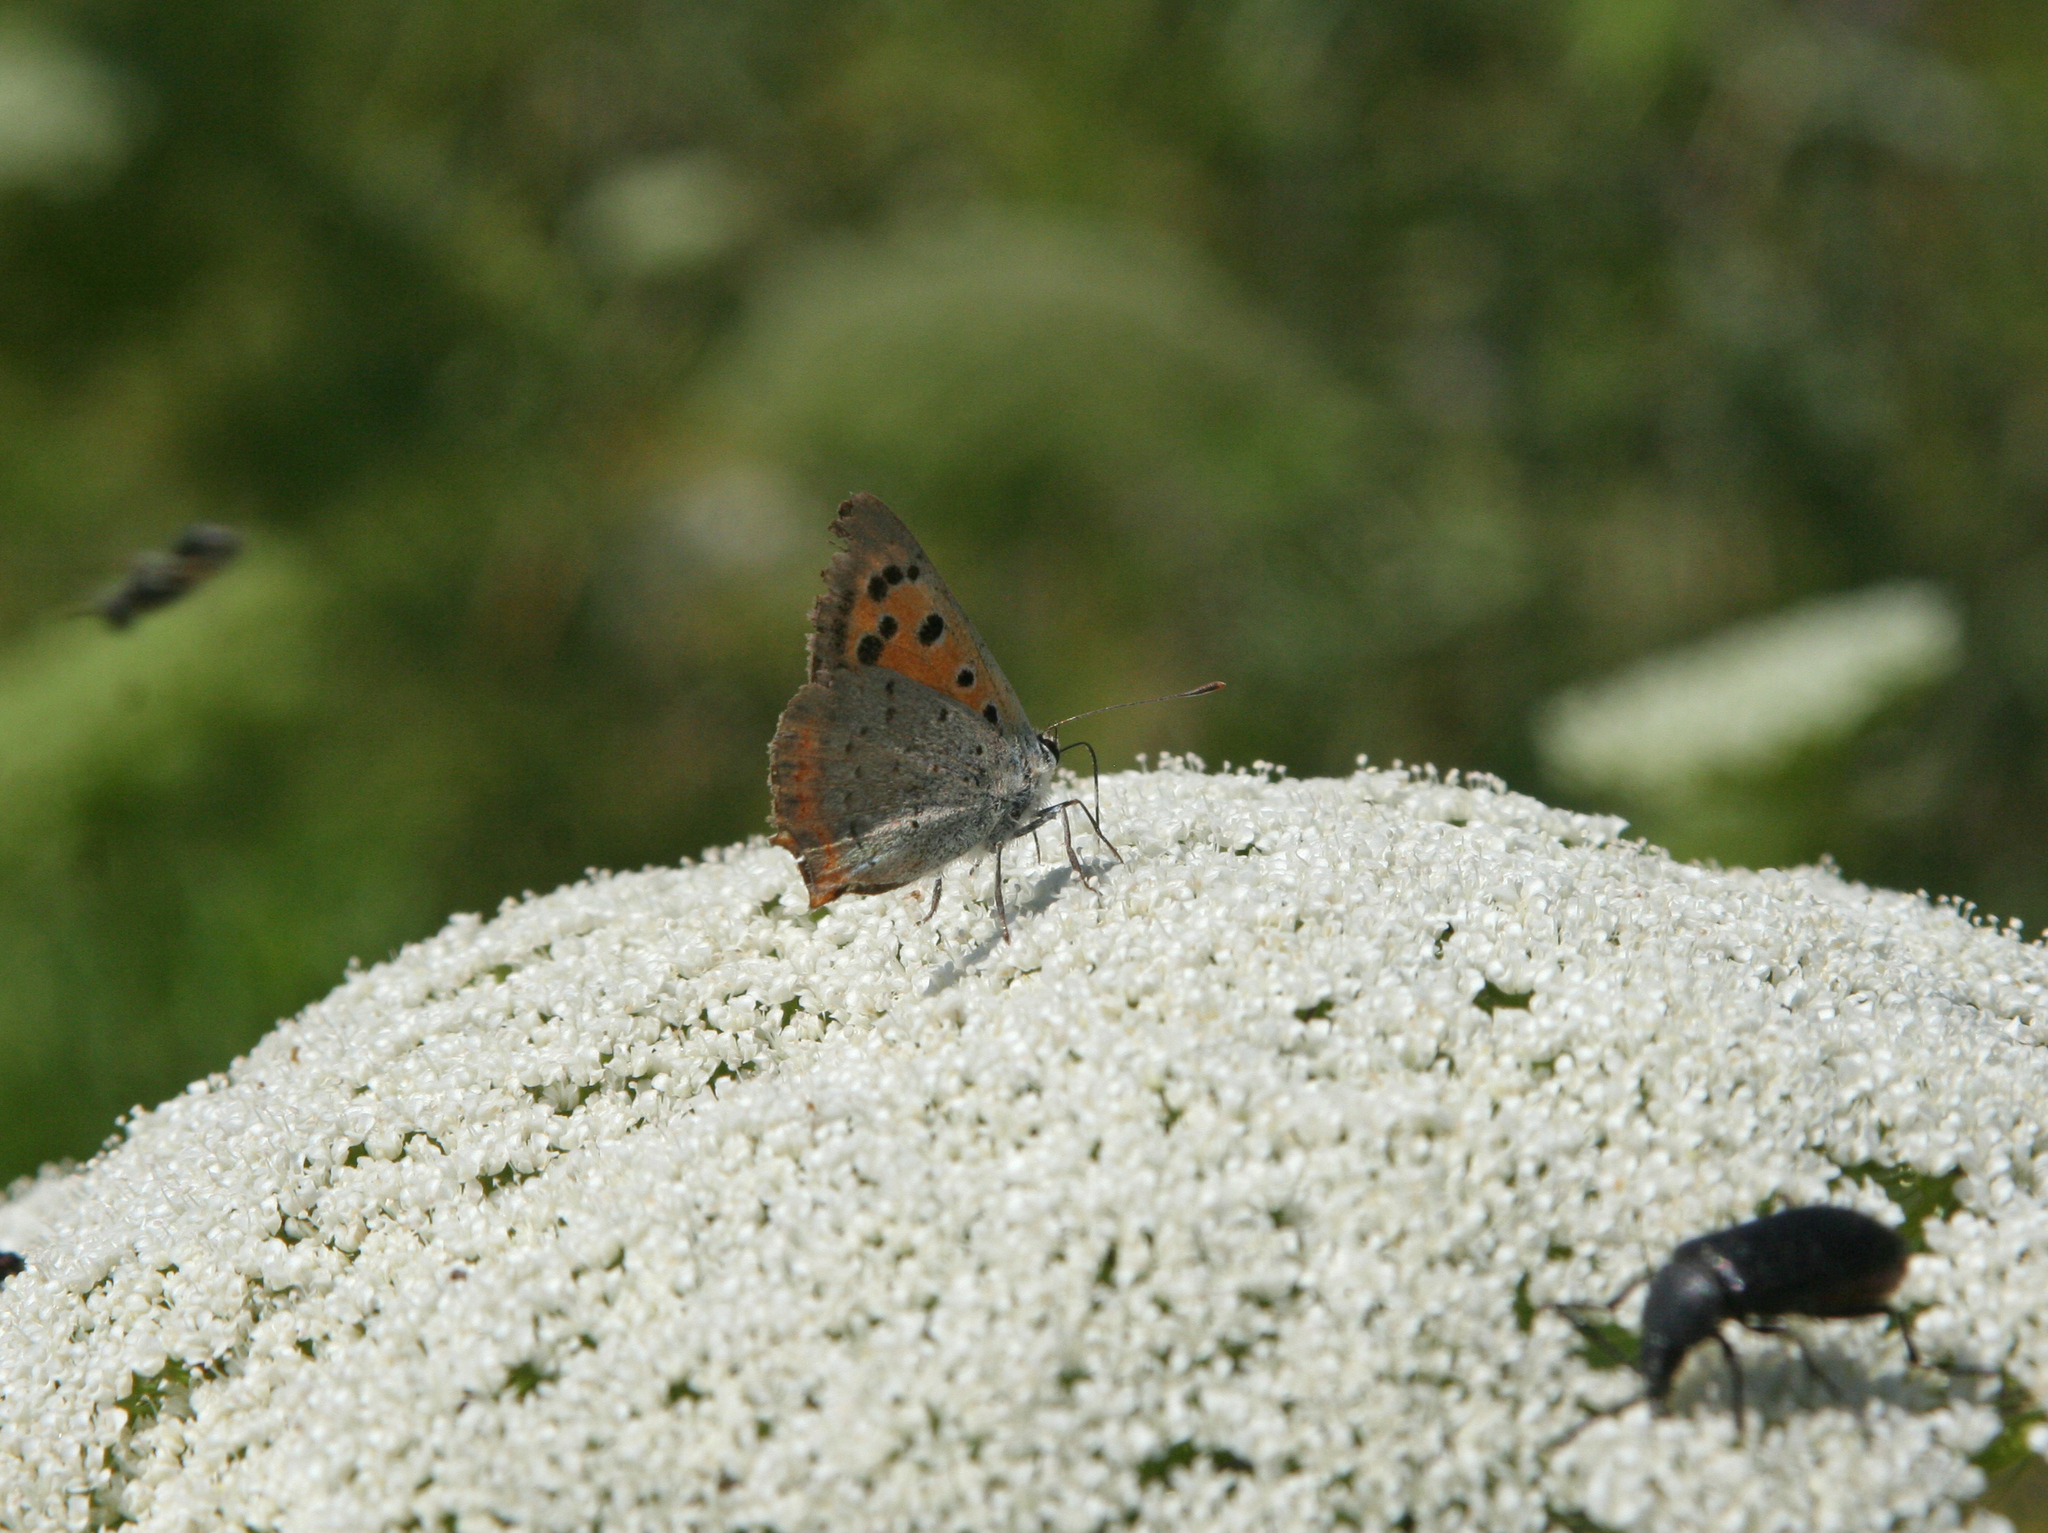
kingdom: Animalia
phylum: Arthropoda
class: Insecta
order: Lepidoptera
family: Lycaenidae
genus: Lycaena
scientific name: Lycaena phlaeas
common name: Small copper
